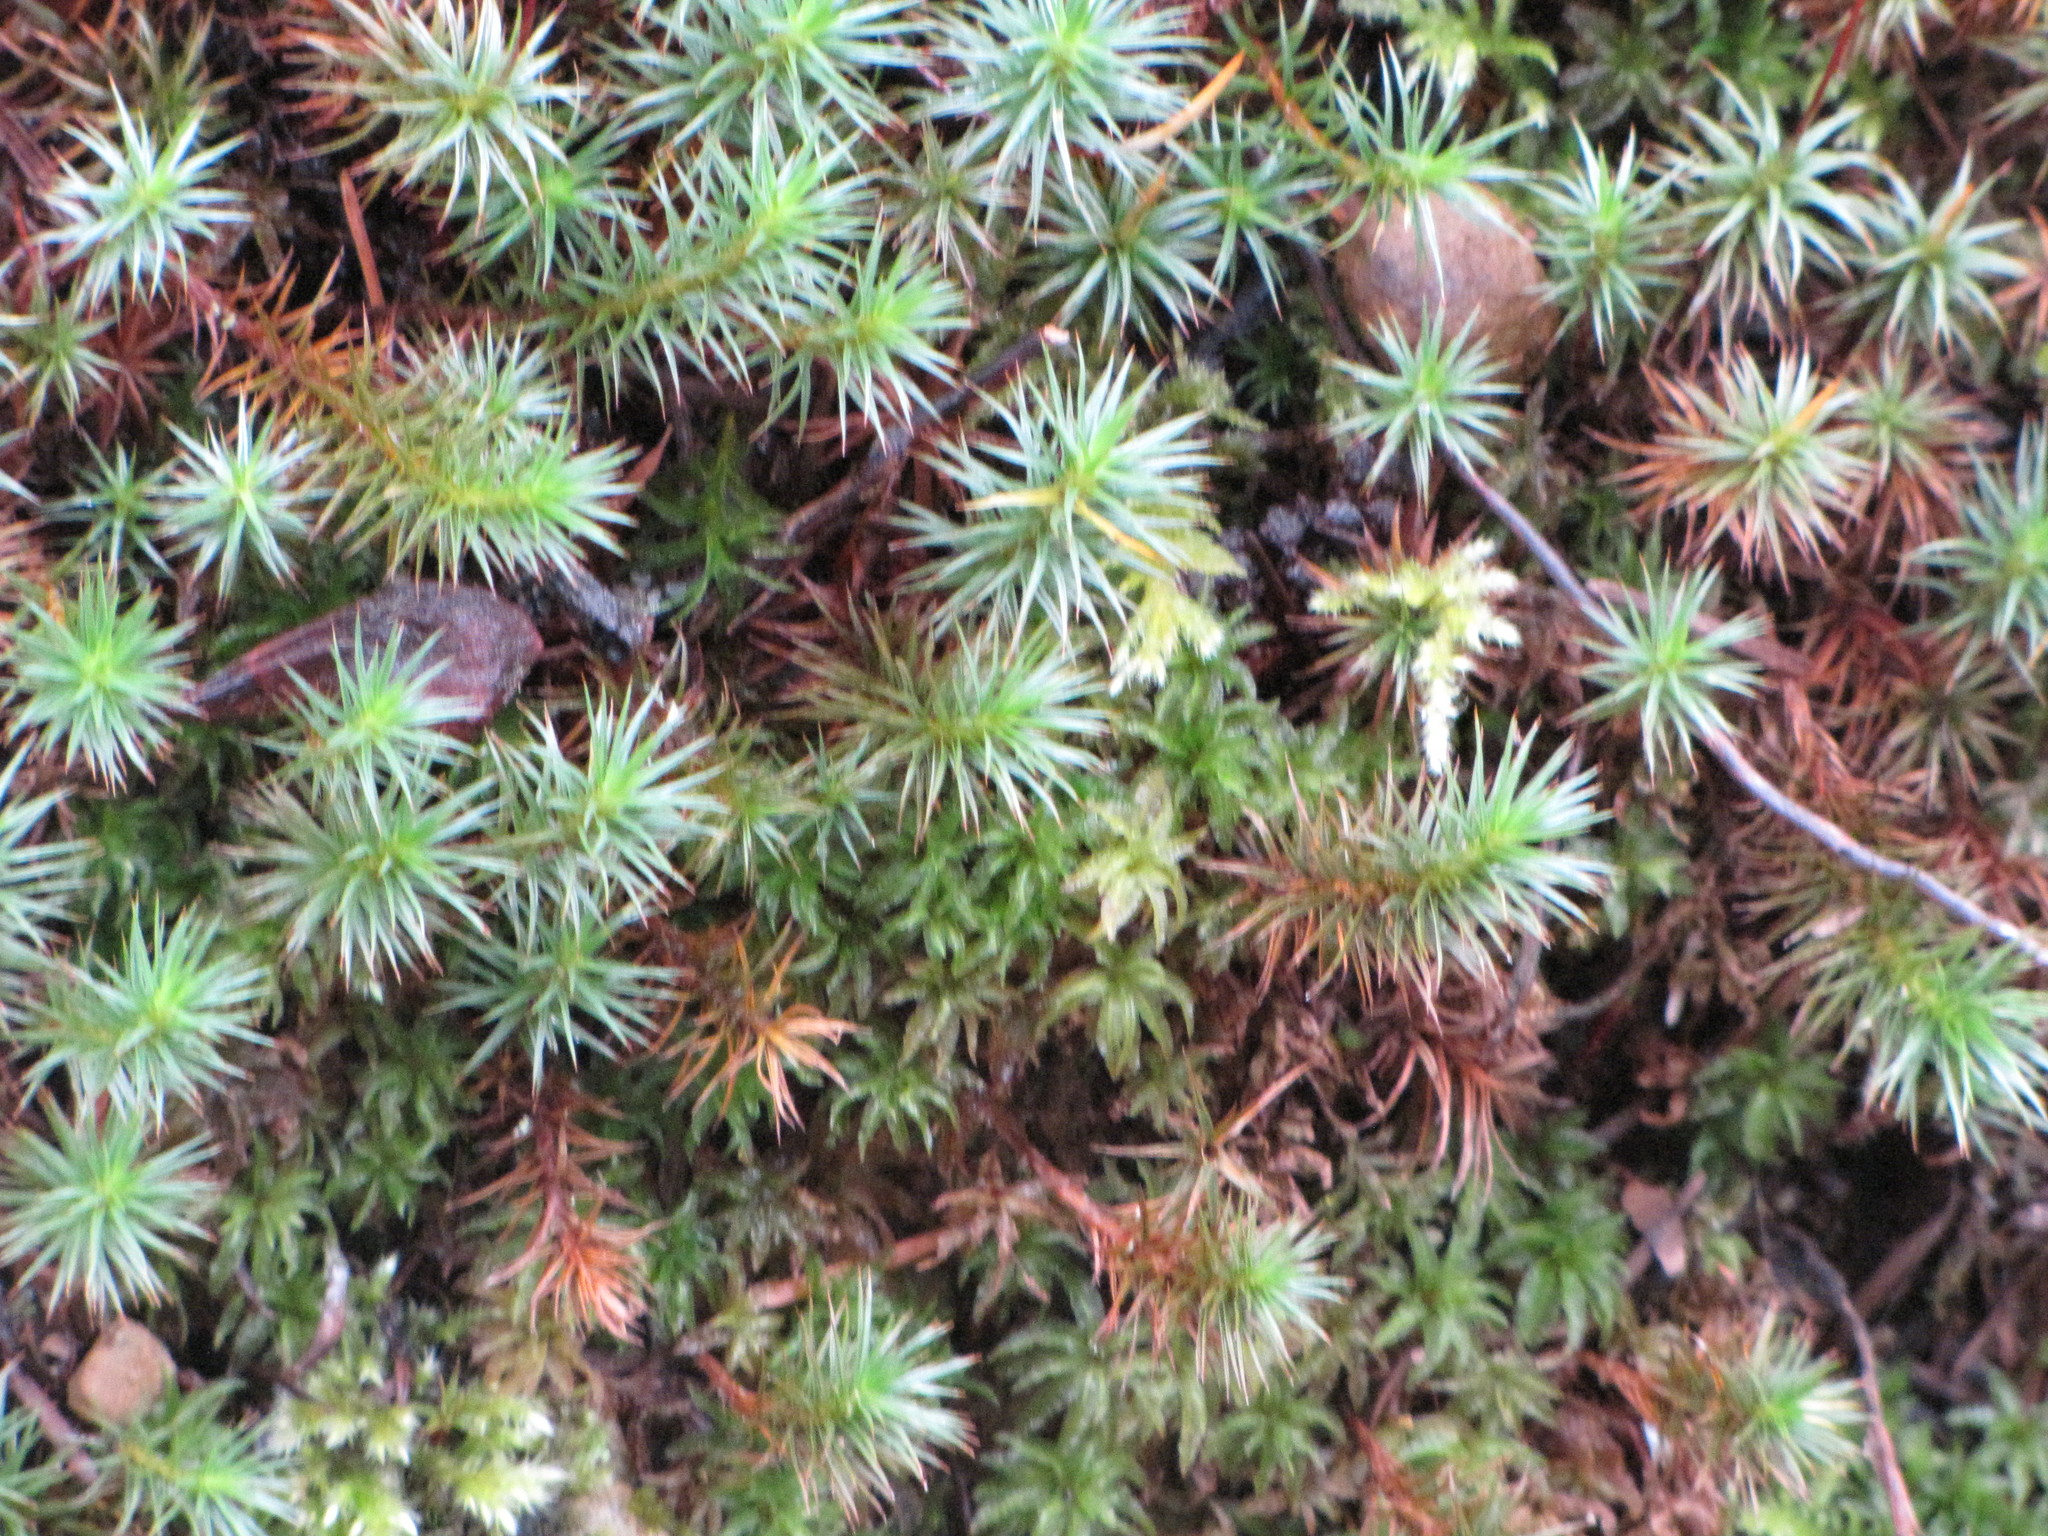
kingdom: Plantae
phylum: Bryophyta
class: Polytrichopsida
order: Polytrichales
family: Polytrichaceae
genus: Polytrichum
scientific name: Polytrichum juniperinum
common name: Juniper haircap moss
